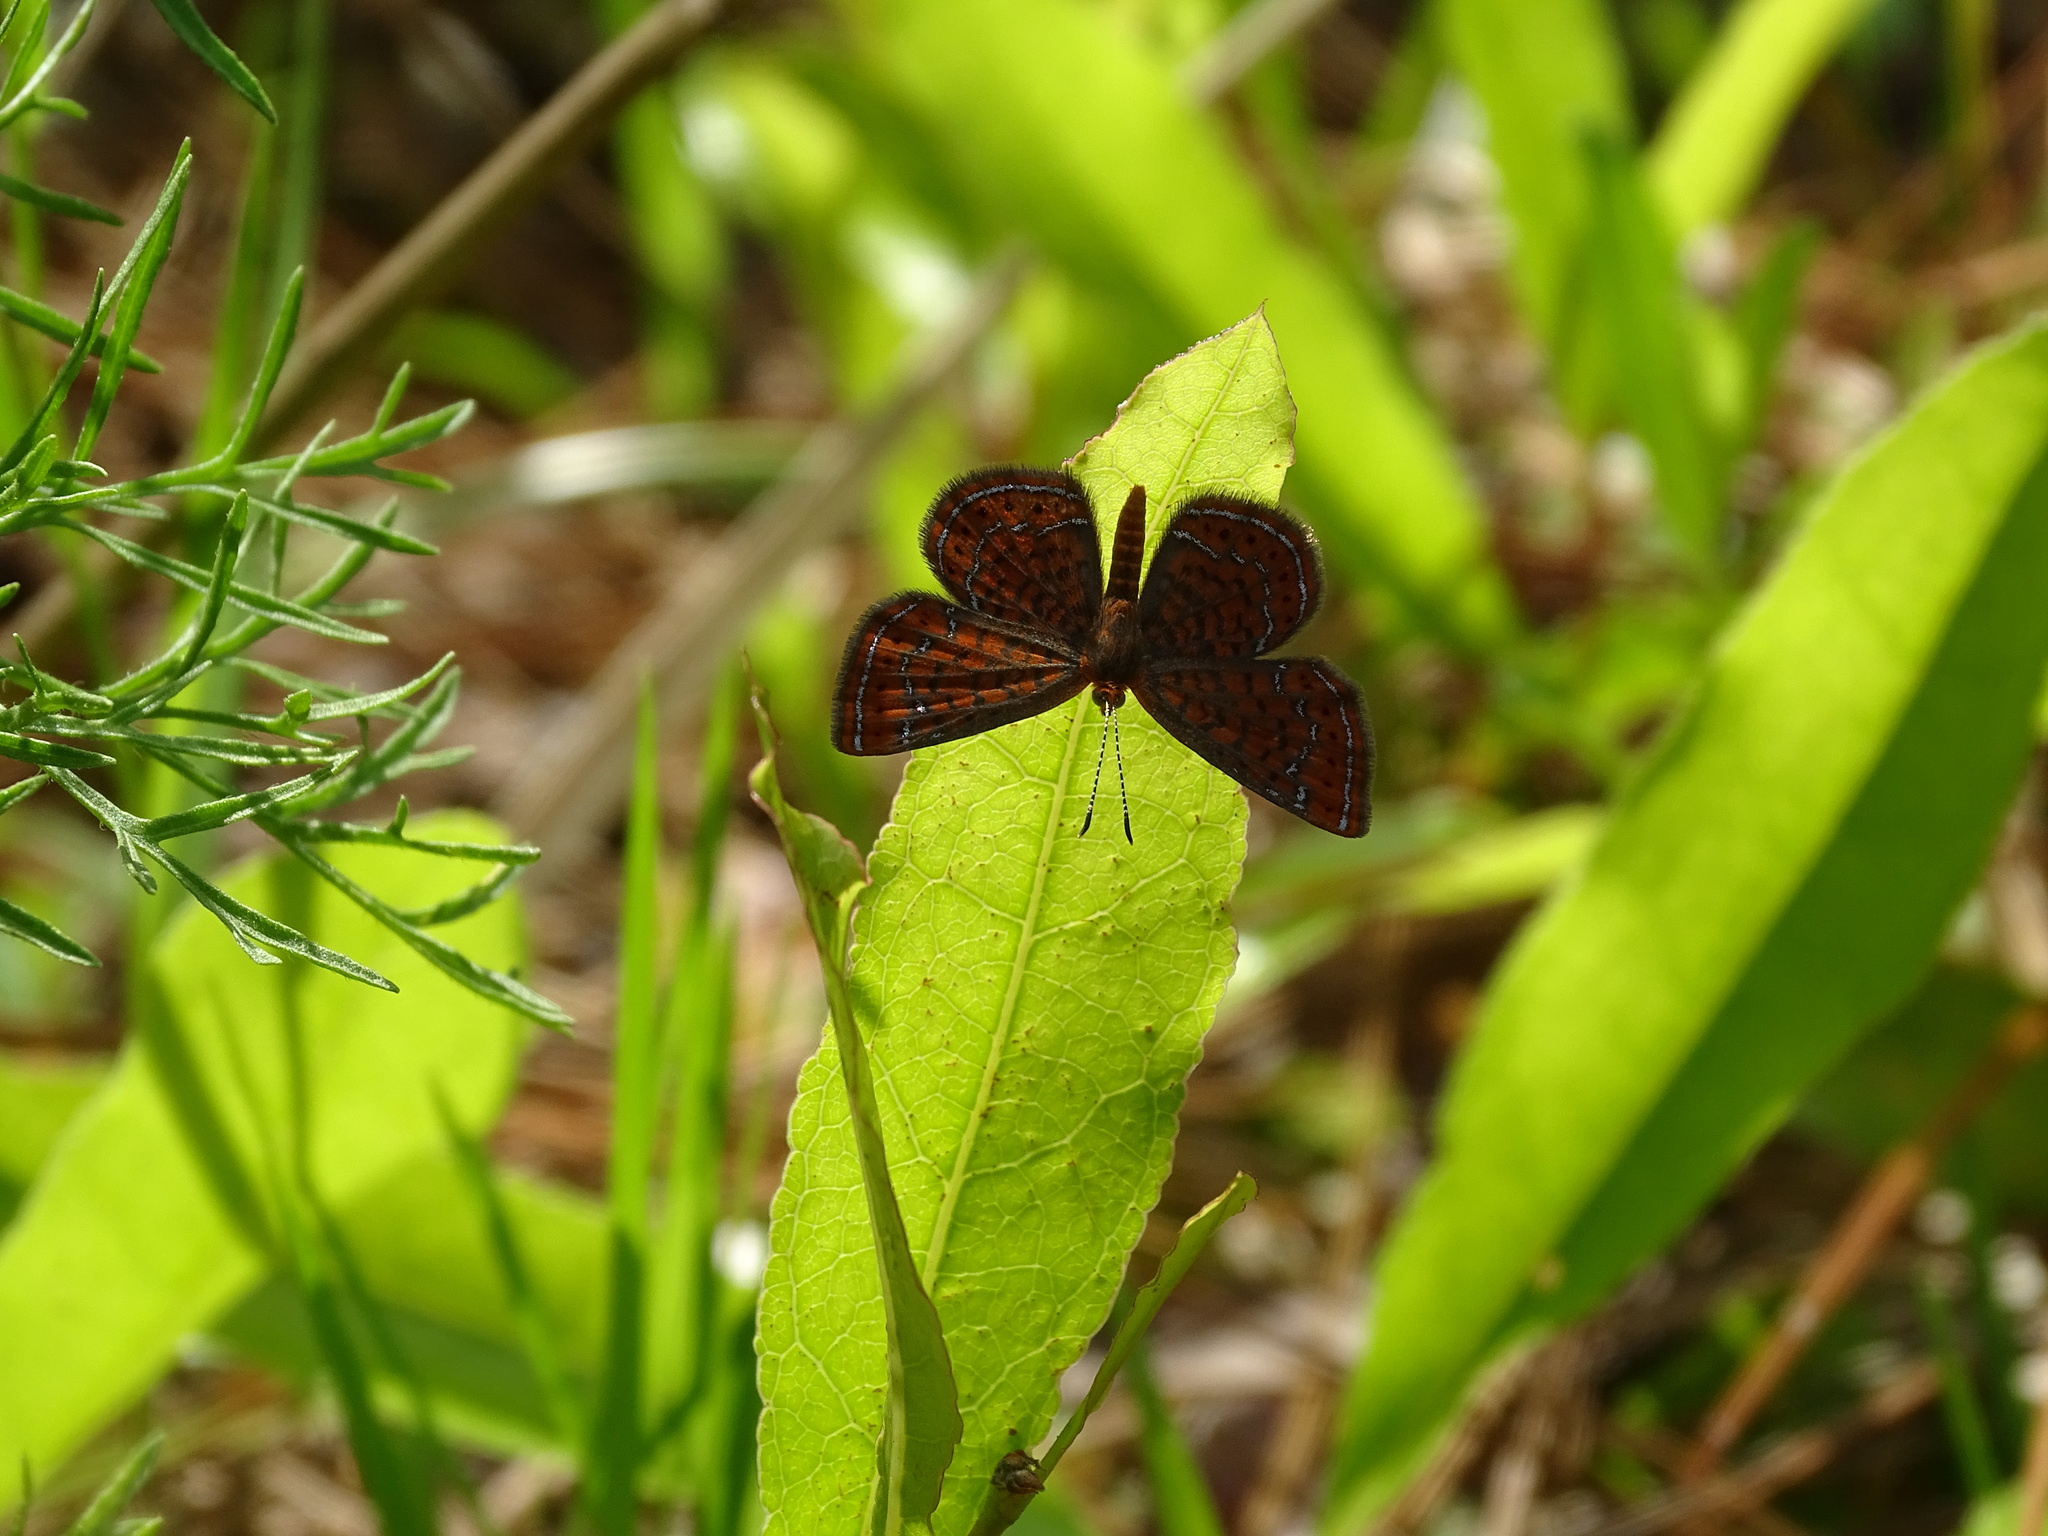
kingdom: Animalia
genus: Calephelis
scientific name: Calephelis virginiensis
